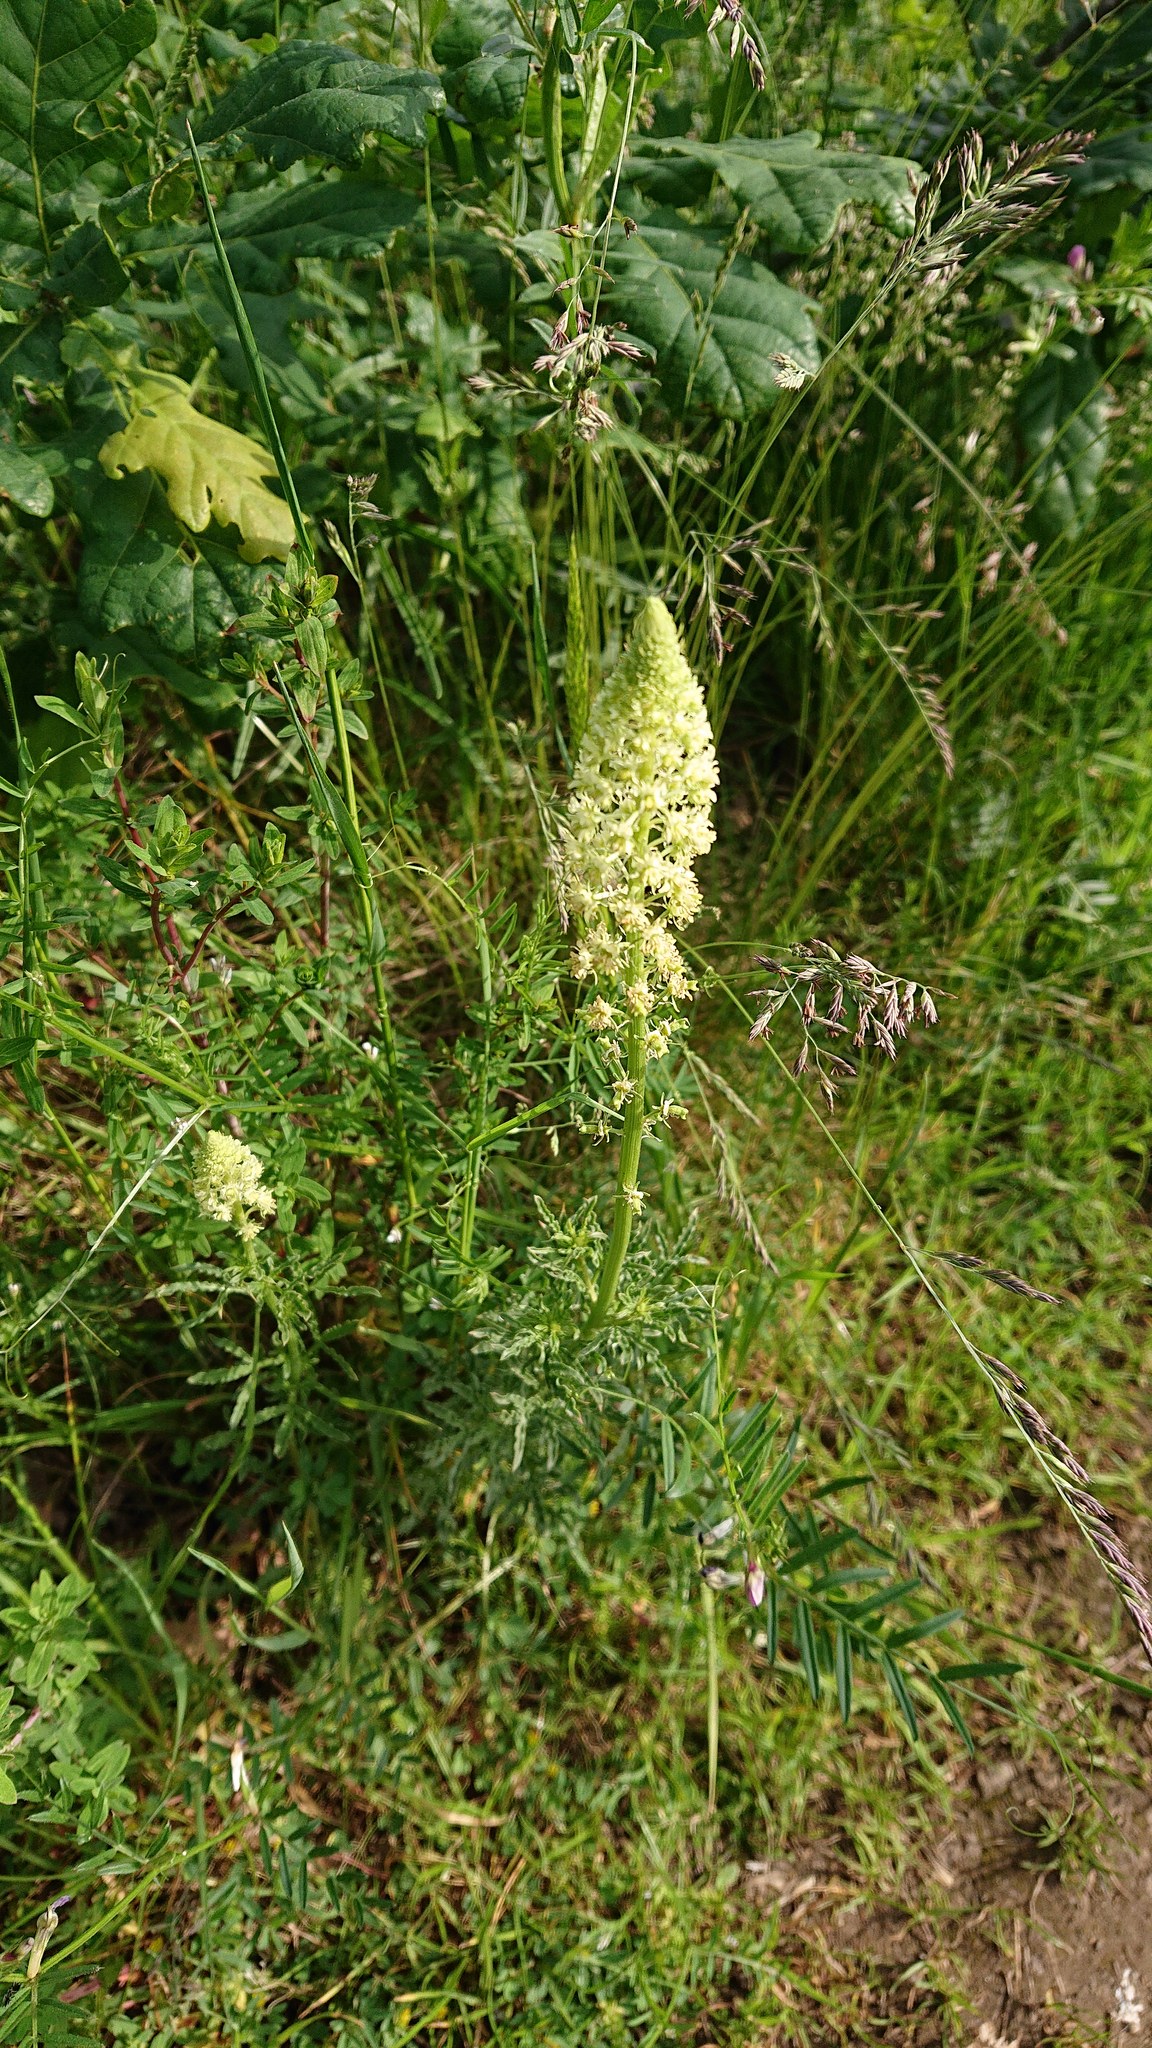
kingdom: Plantae
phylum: Tracheophyta
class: Magnoliopsida
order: Brassicales
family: Resedaceae
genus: Reseda
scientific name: Reseda lutea
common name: Wild mignonette
